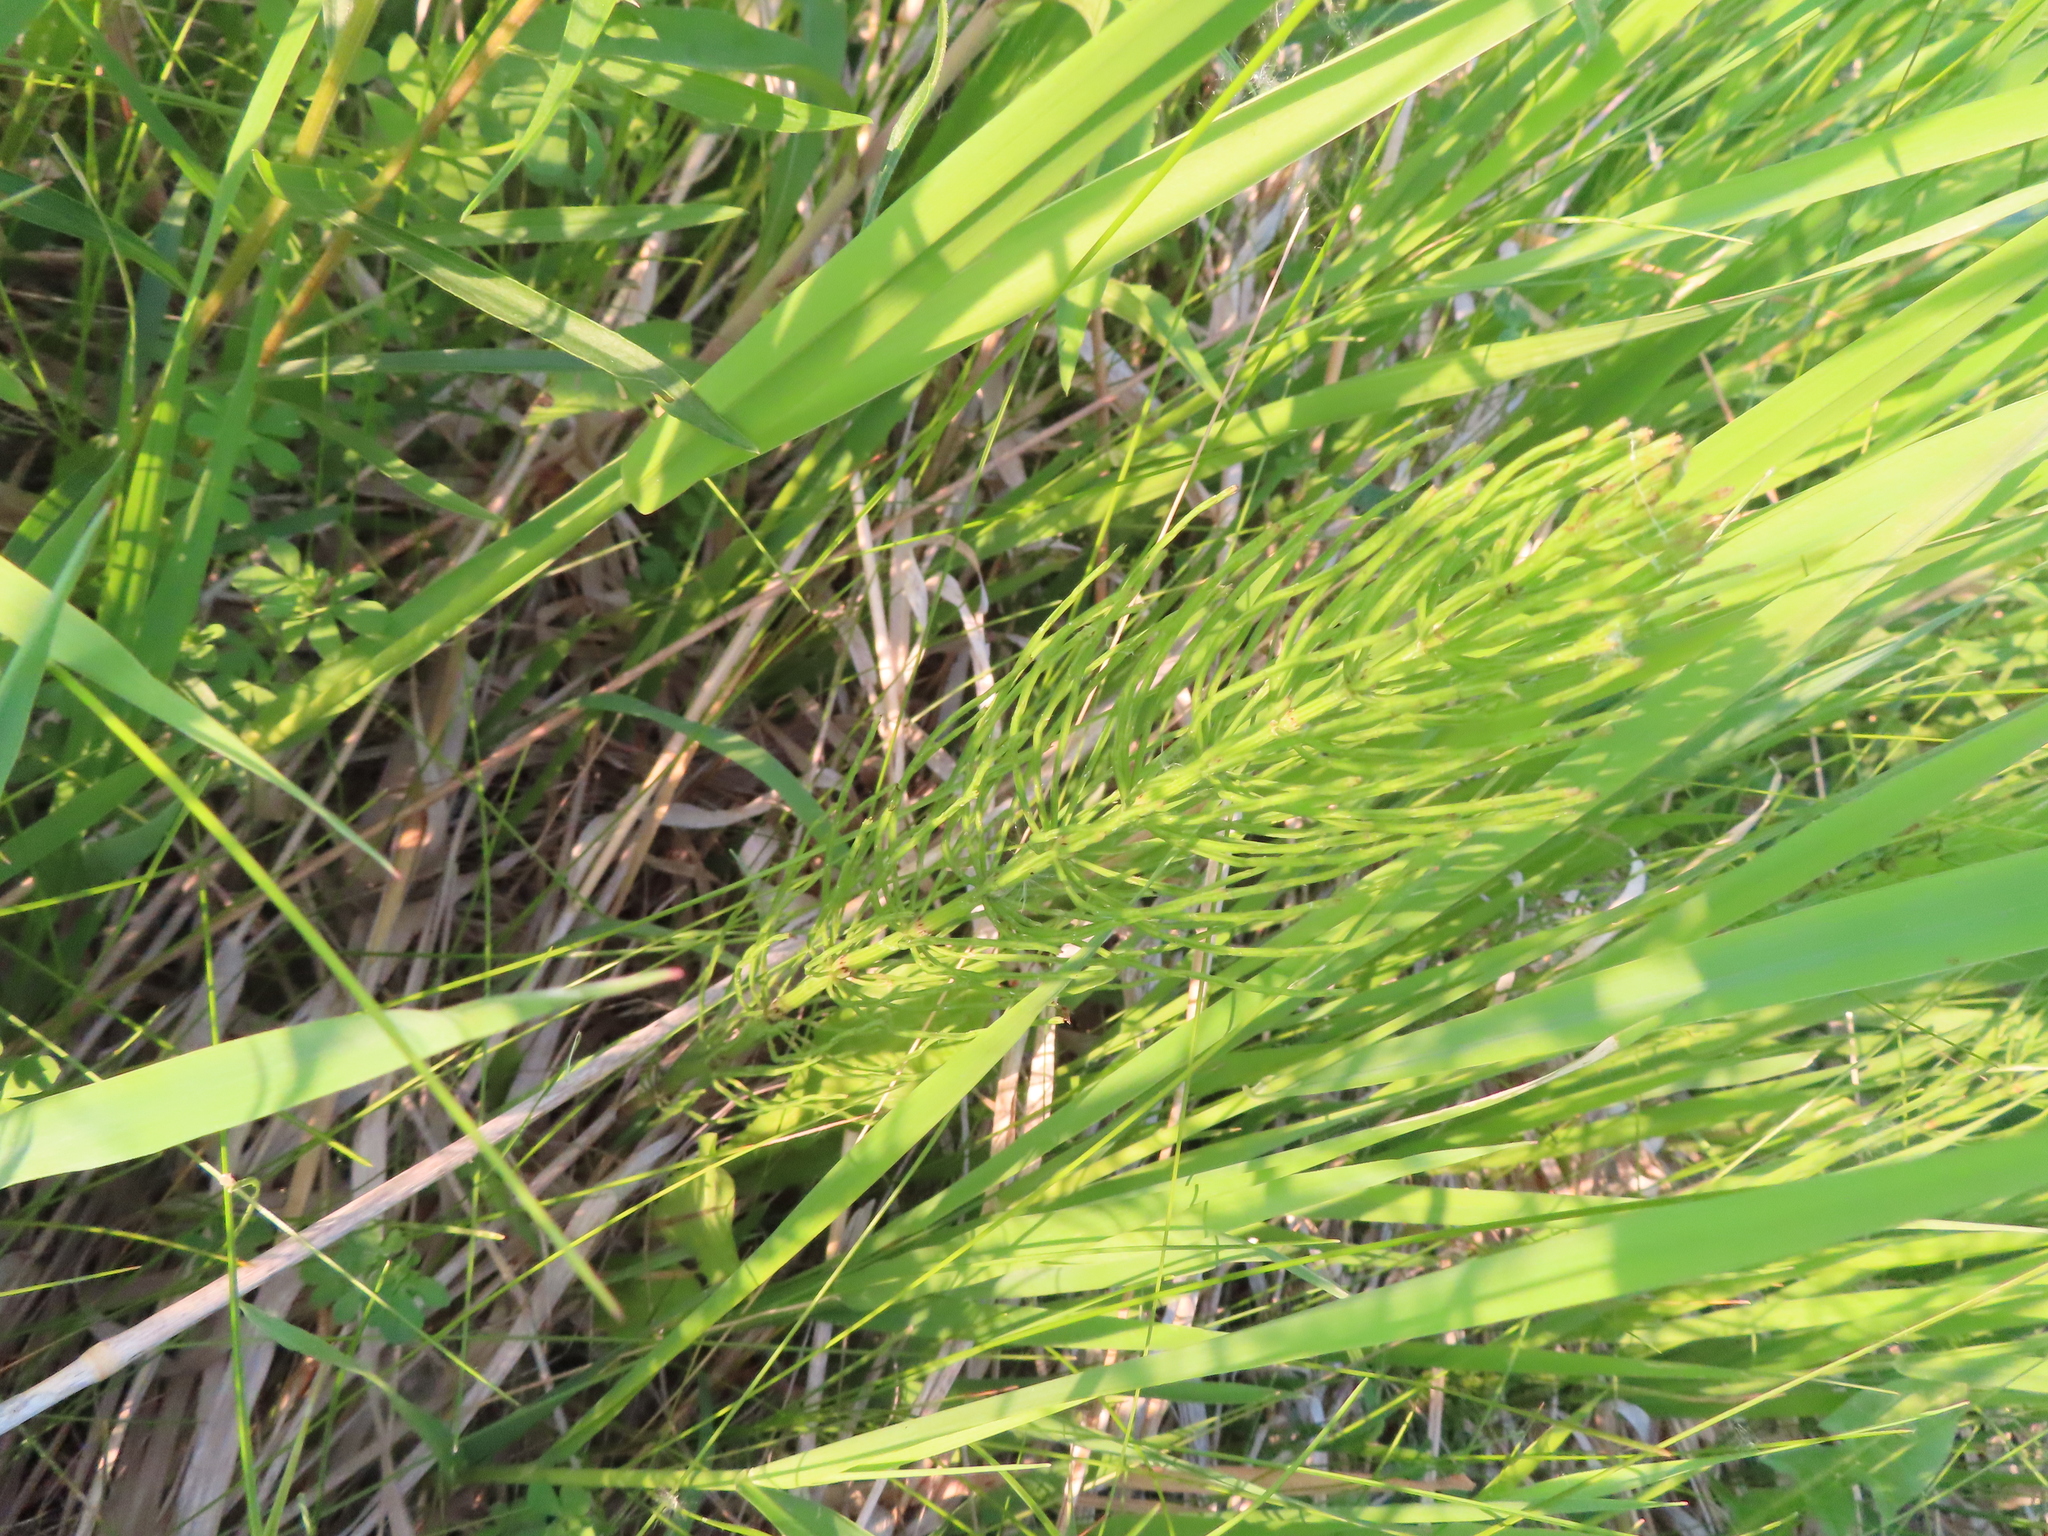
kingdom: Plantae
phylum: Tracheophyta
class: Polypodiopsida
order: Equisetales
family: Equisetaceae
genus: Equisetum
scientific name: Equisetum arvense
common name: Field horsetail
